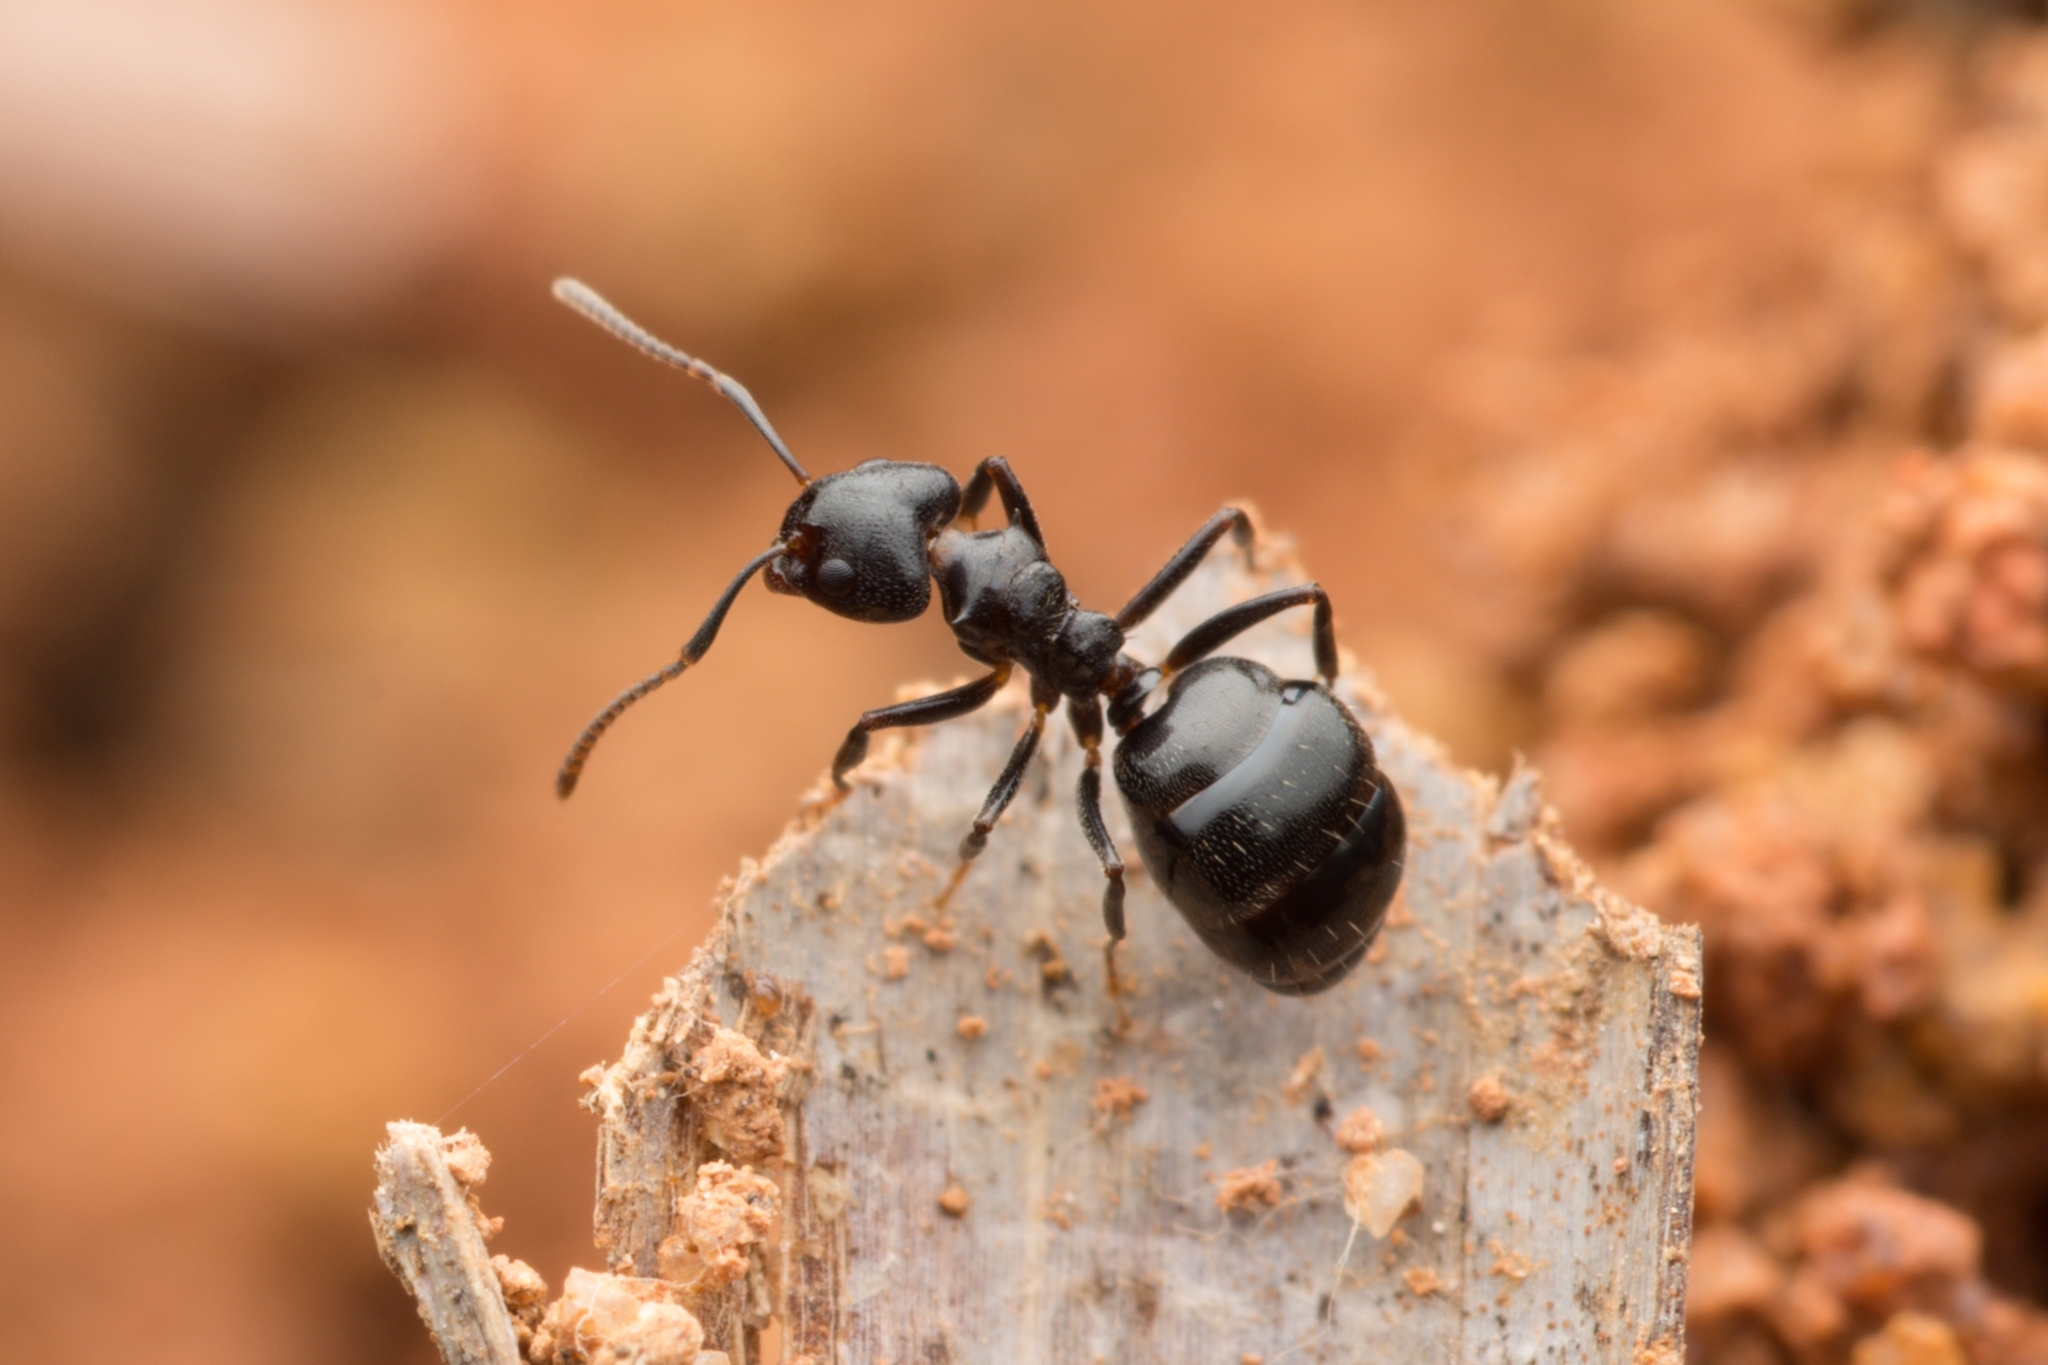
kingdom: Animalia
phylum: Arthropoda
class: Insecta
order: Hymenoptera
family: Formicidae
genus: Dolichoderus
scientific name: Dolichoderus debilis
